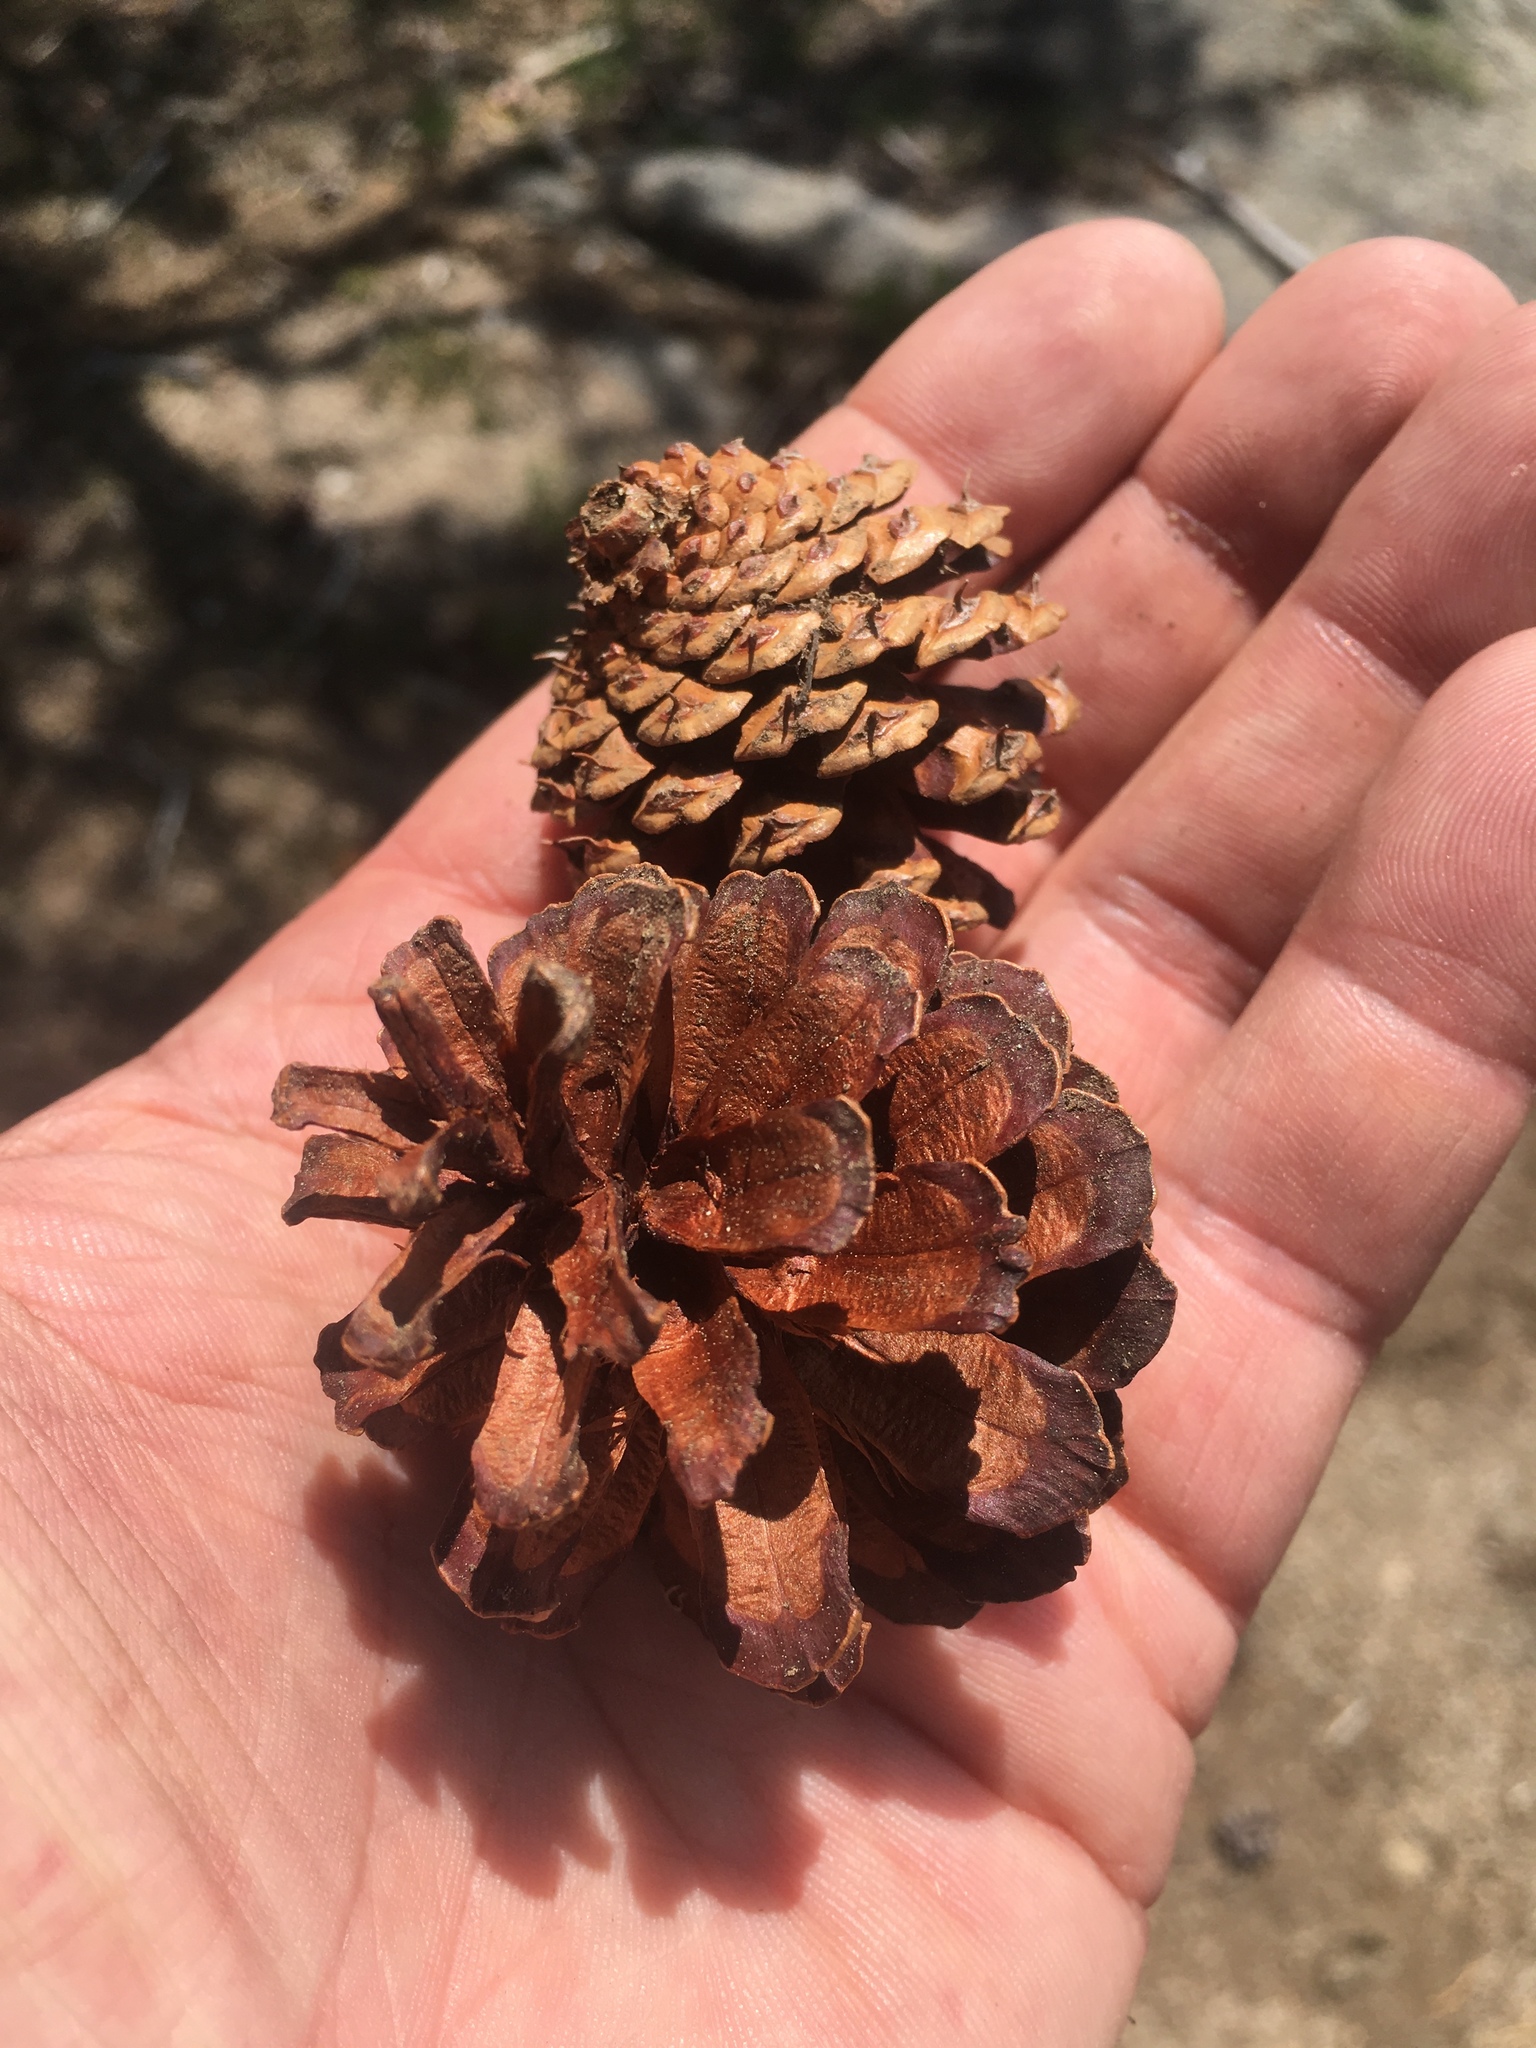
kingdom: Plantae
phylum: Tracheophyta
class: Pinopsida
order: Pinales
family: Pinaceae
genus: Pinus
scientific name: Pinus contorta
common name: Lodgepole pine
